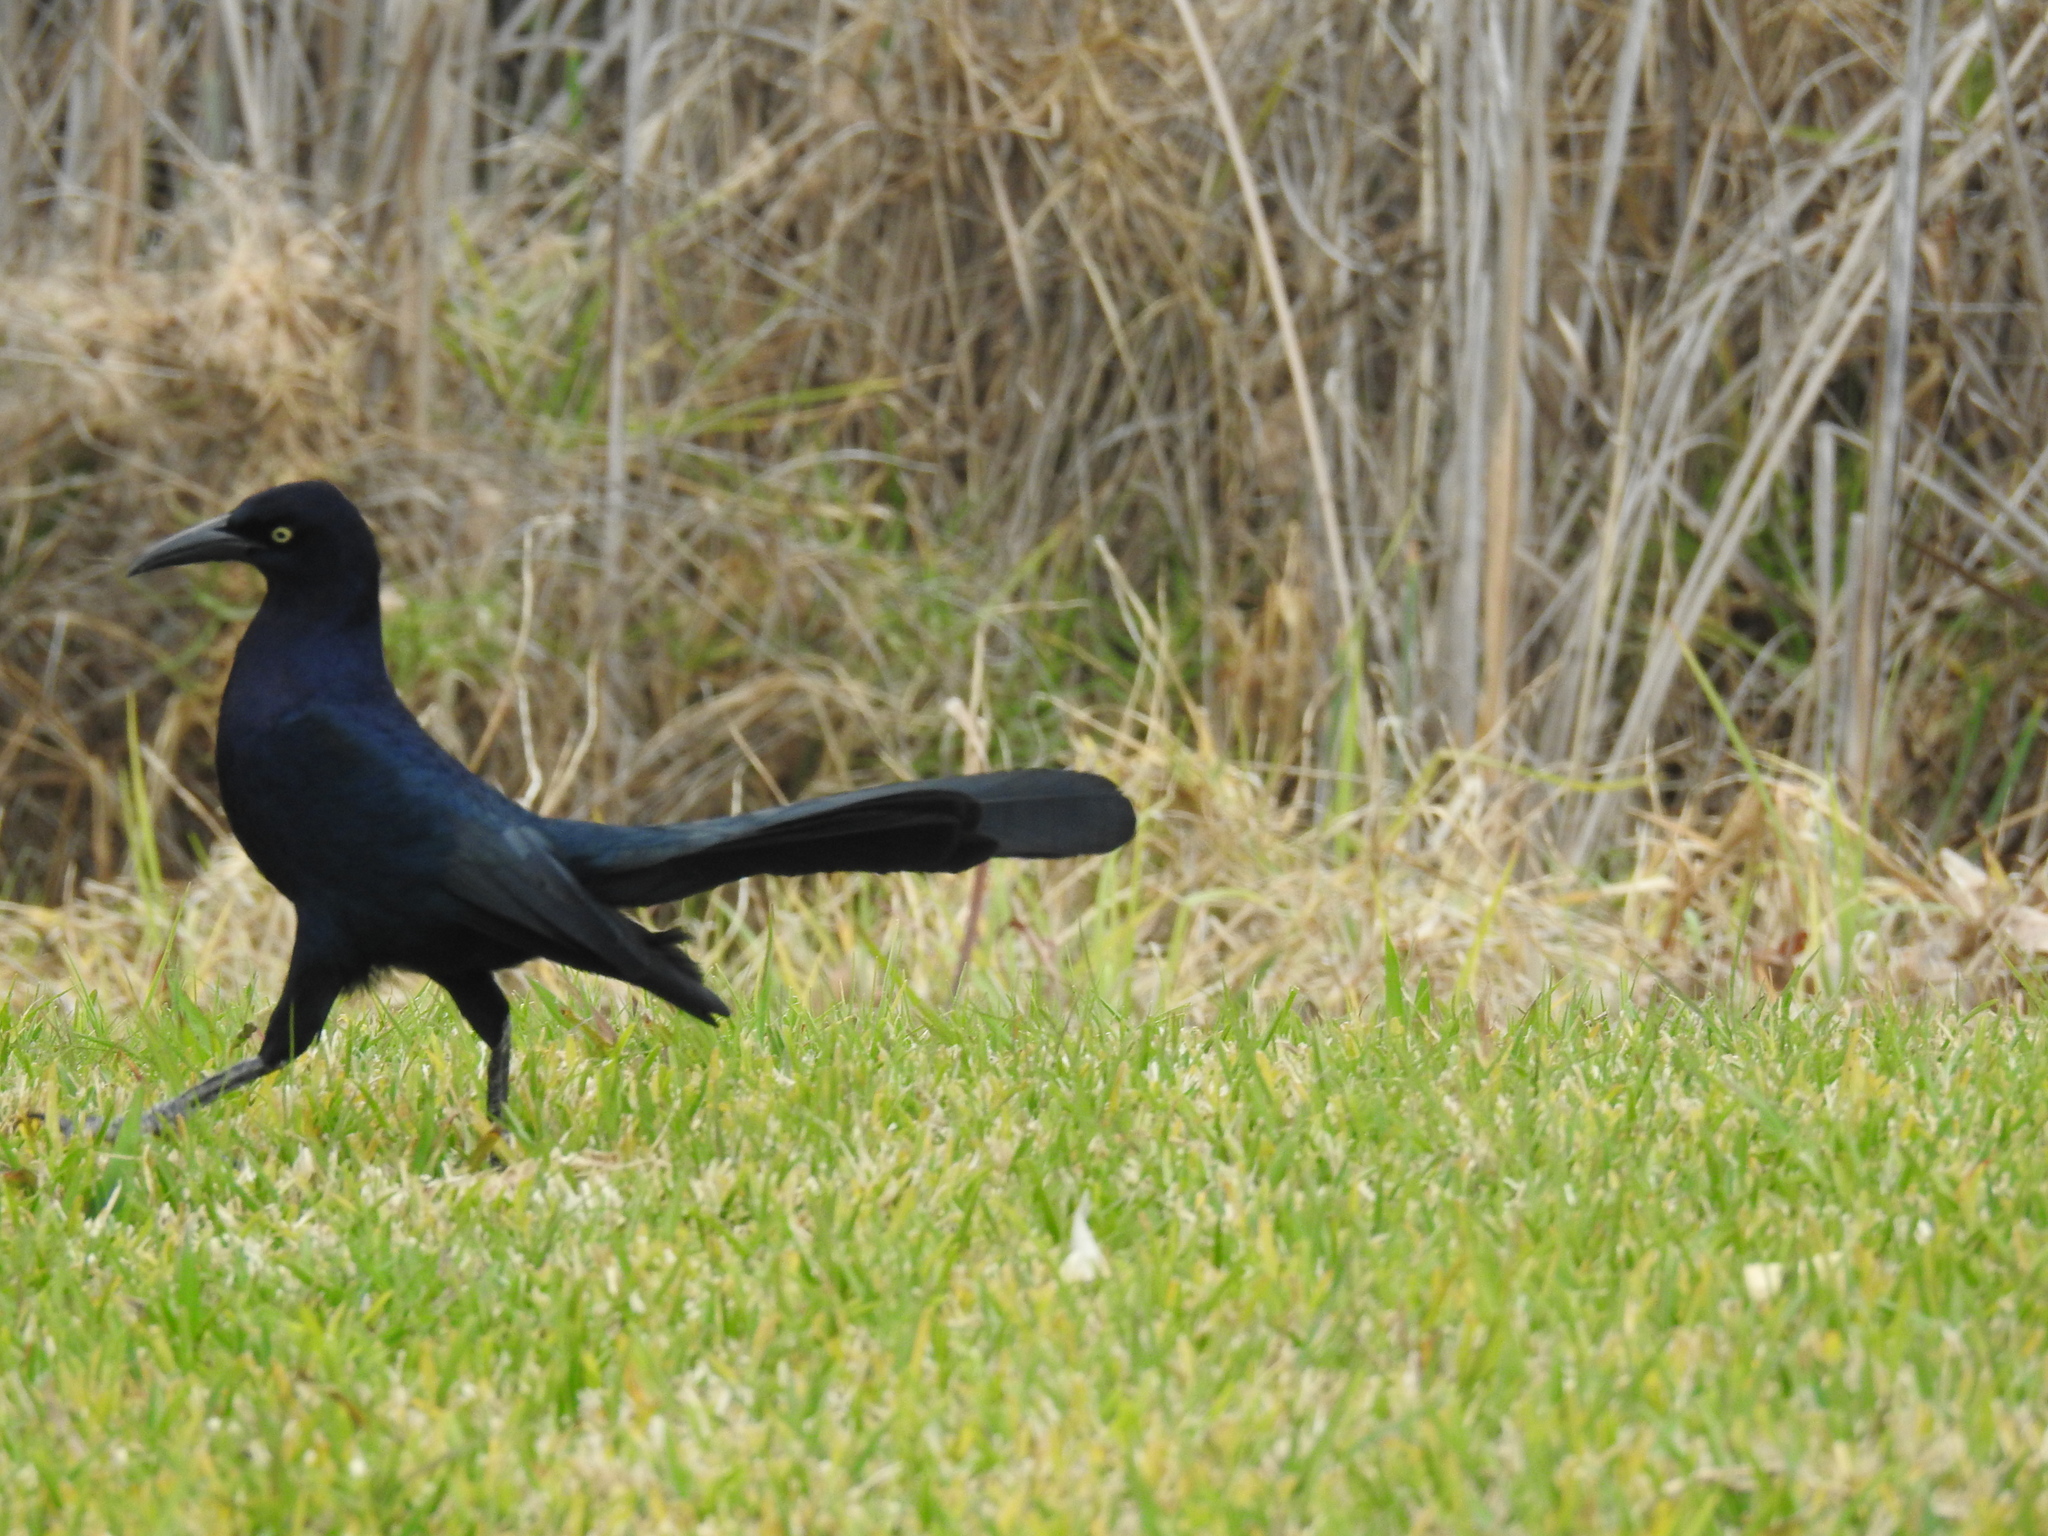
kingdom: Animalia
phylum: Chordata
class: Aves
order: Passeriformes
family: Icteridae
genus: Quiscalus
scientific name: Quiscalus mexicanus
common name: Great-tailed grackle
